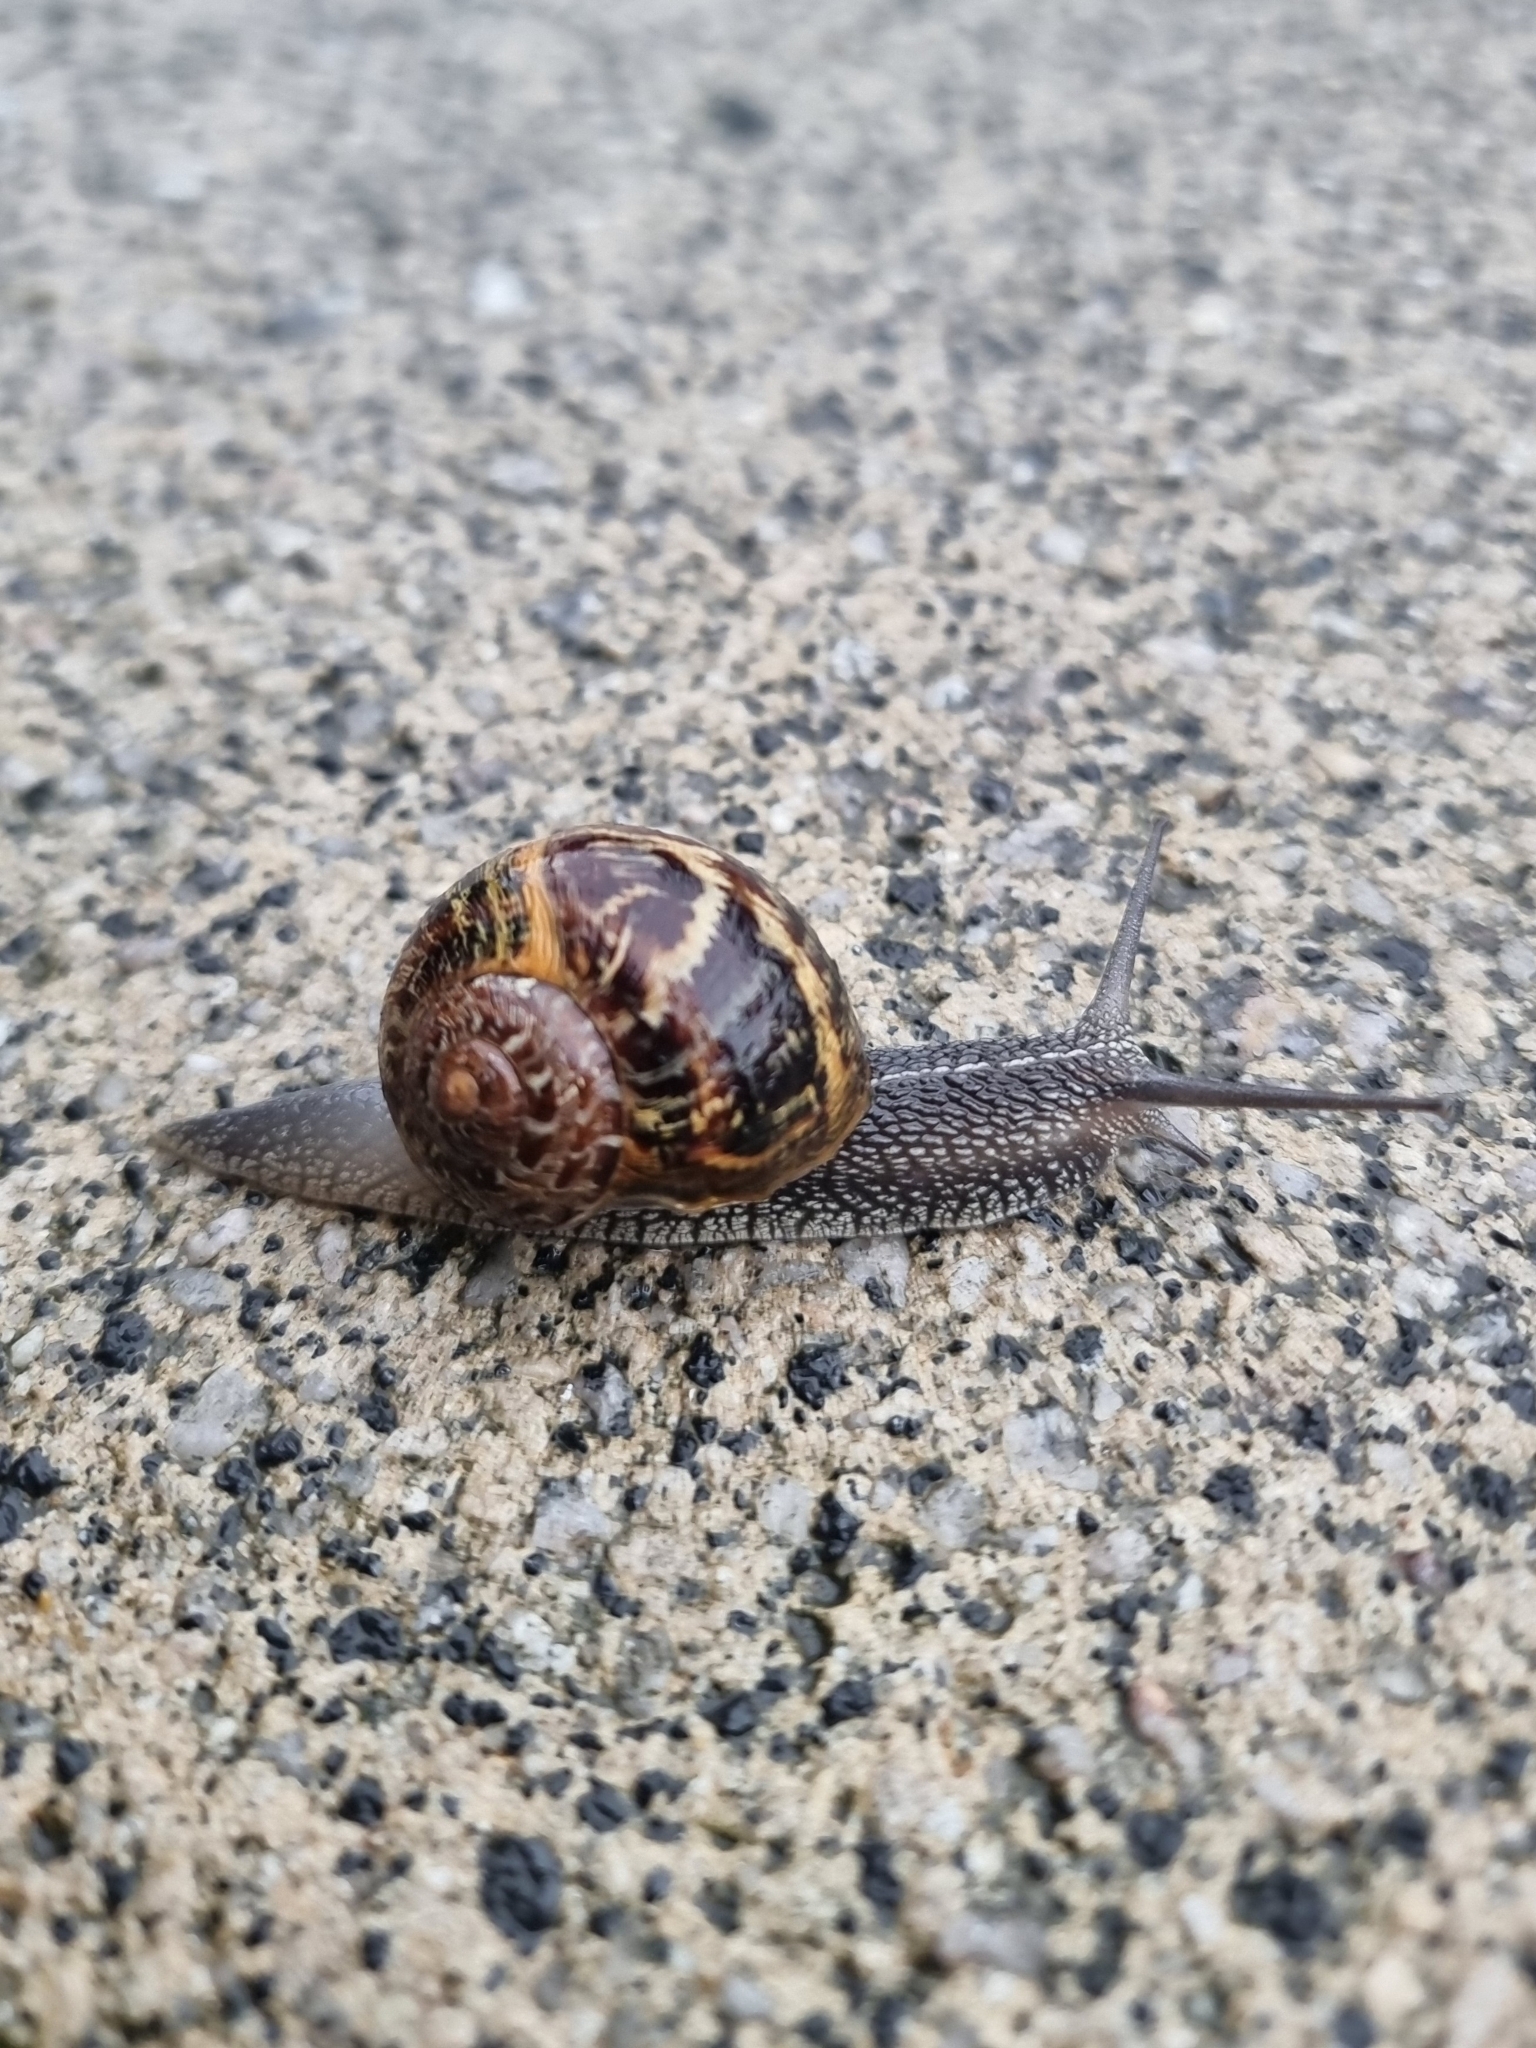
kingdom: Animalia
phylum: Mollusca
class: Gastropoda
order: Stylommatophora
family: Helicidae
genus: Cornu
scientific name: Cornu aspersum
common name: Brown garden snail
